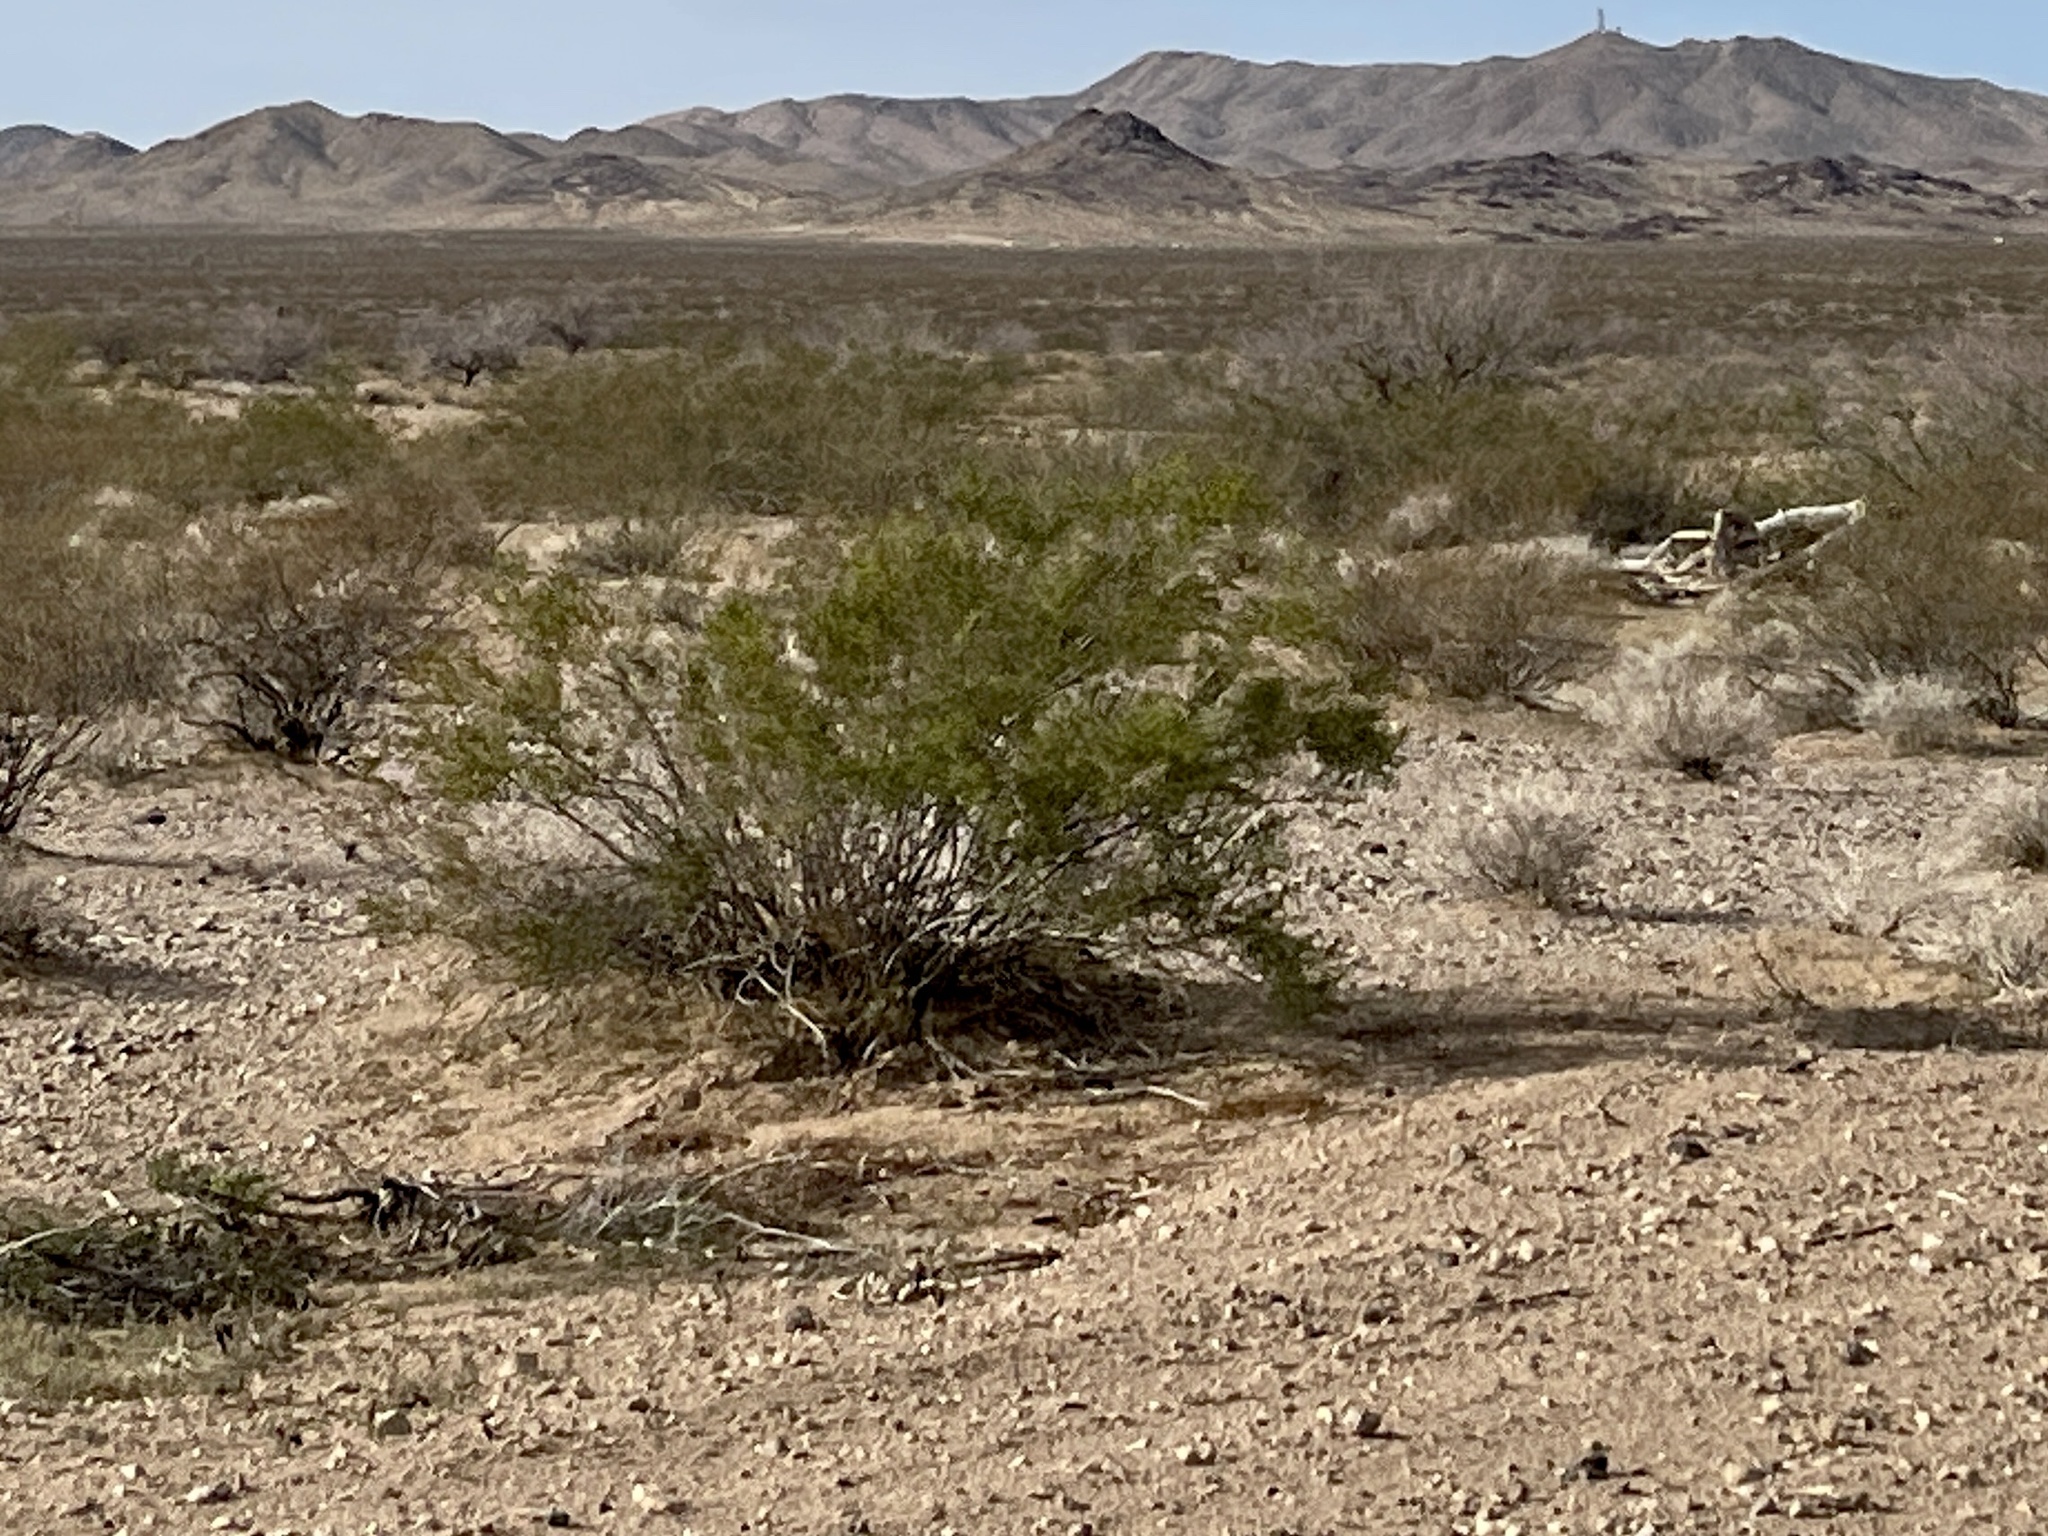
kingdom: Plantae
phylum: Tracheophyta
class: Magnoliopsida
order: Zygophyllales
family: Zygophyllaceae
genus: Larrea
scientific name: Larrea tridentata
